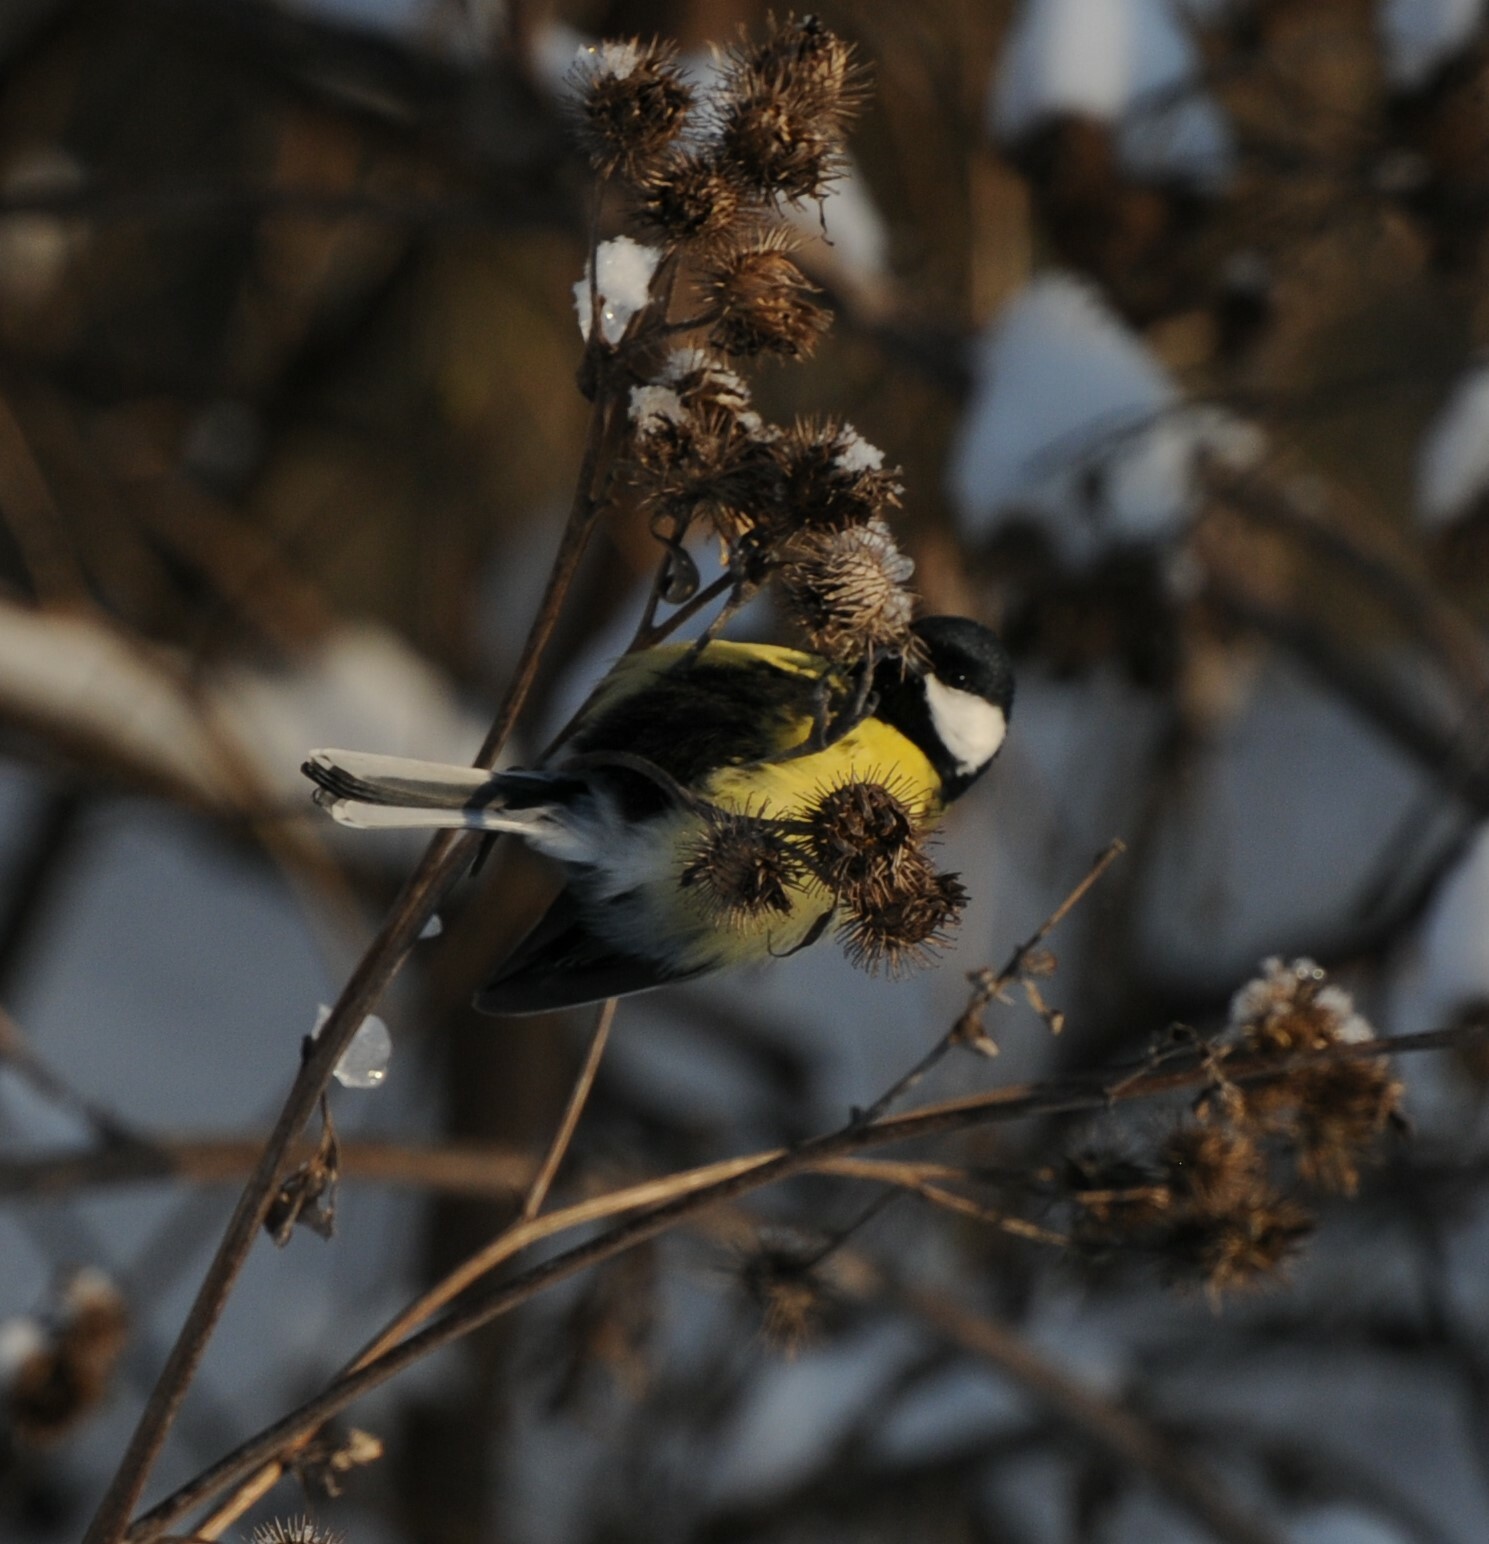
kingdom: Animalia
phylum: Chordata
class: Aves
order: Passeriformes
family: Paridae
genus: Parus
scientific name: Parus major
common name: Great tit
